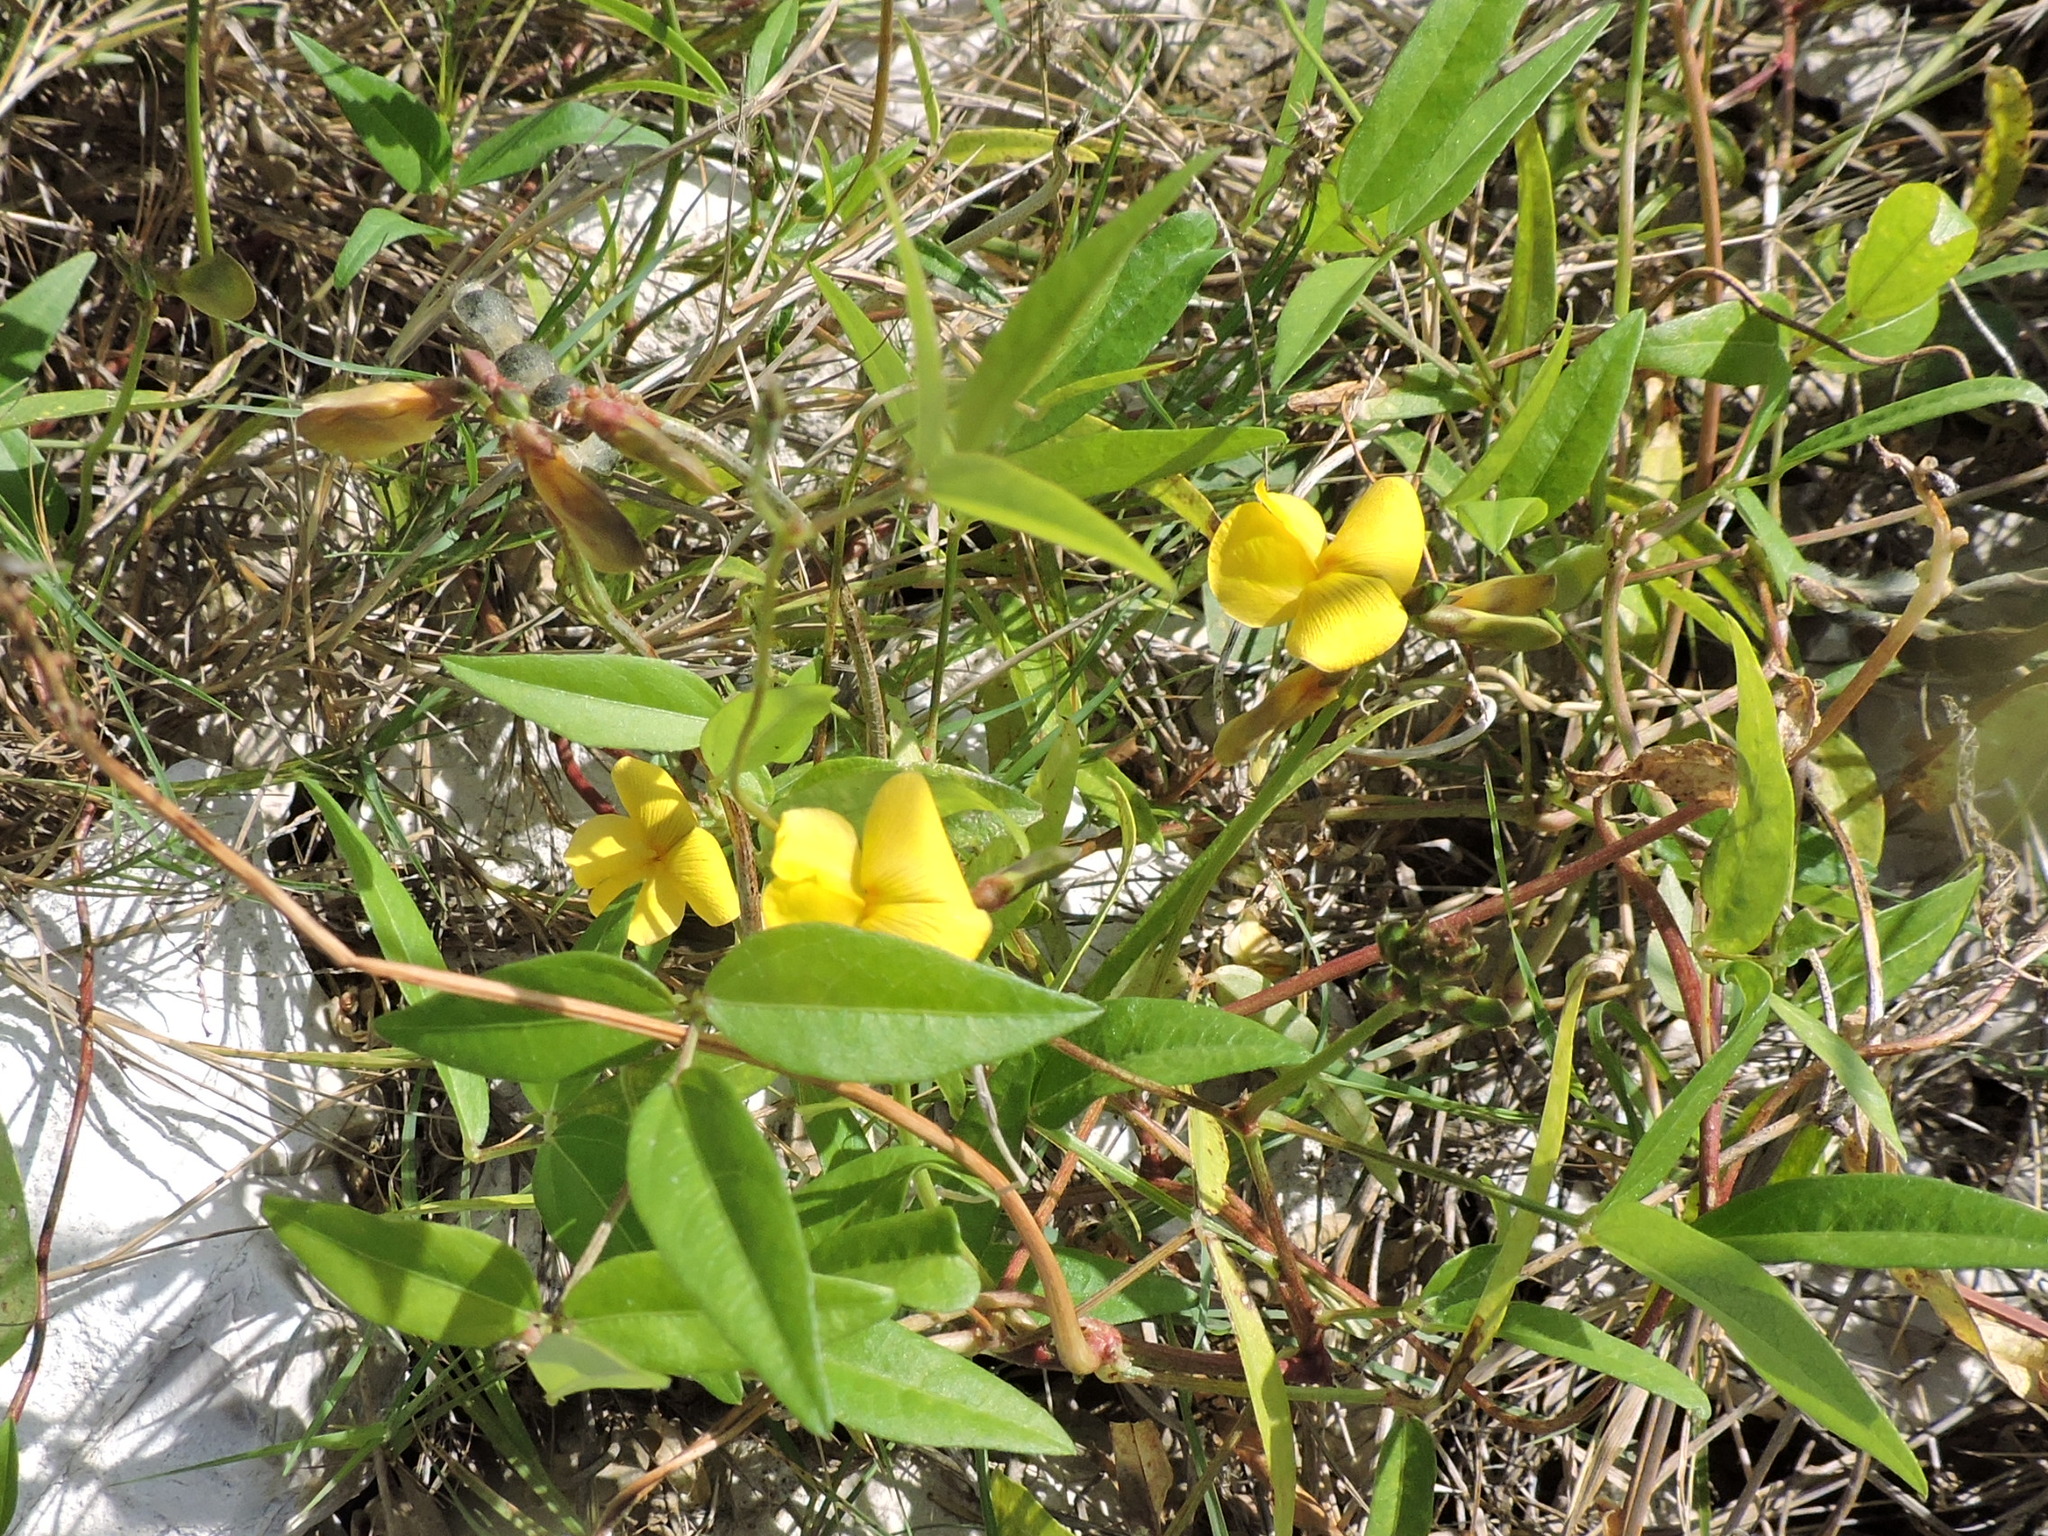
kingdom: Plantae
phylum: Tracheophyta
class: Magnoliopsida
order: Fabales
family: Fabaceae
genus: Vigna
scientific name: Vigna luteola
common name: Hairypod cowpea
